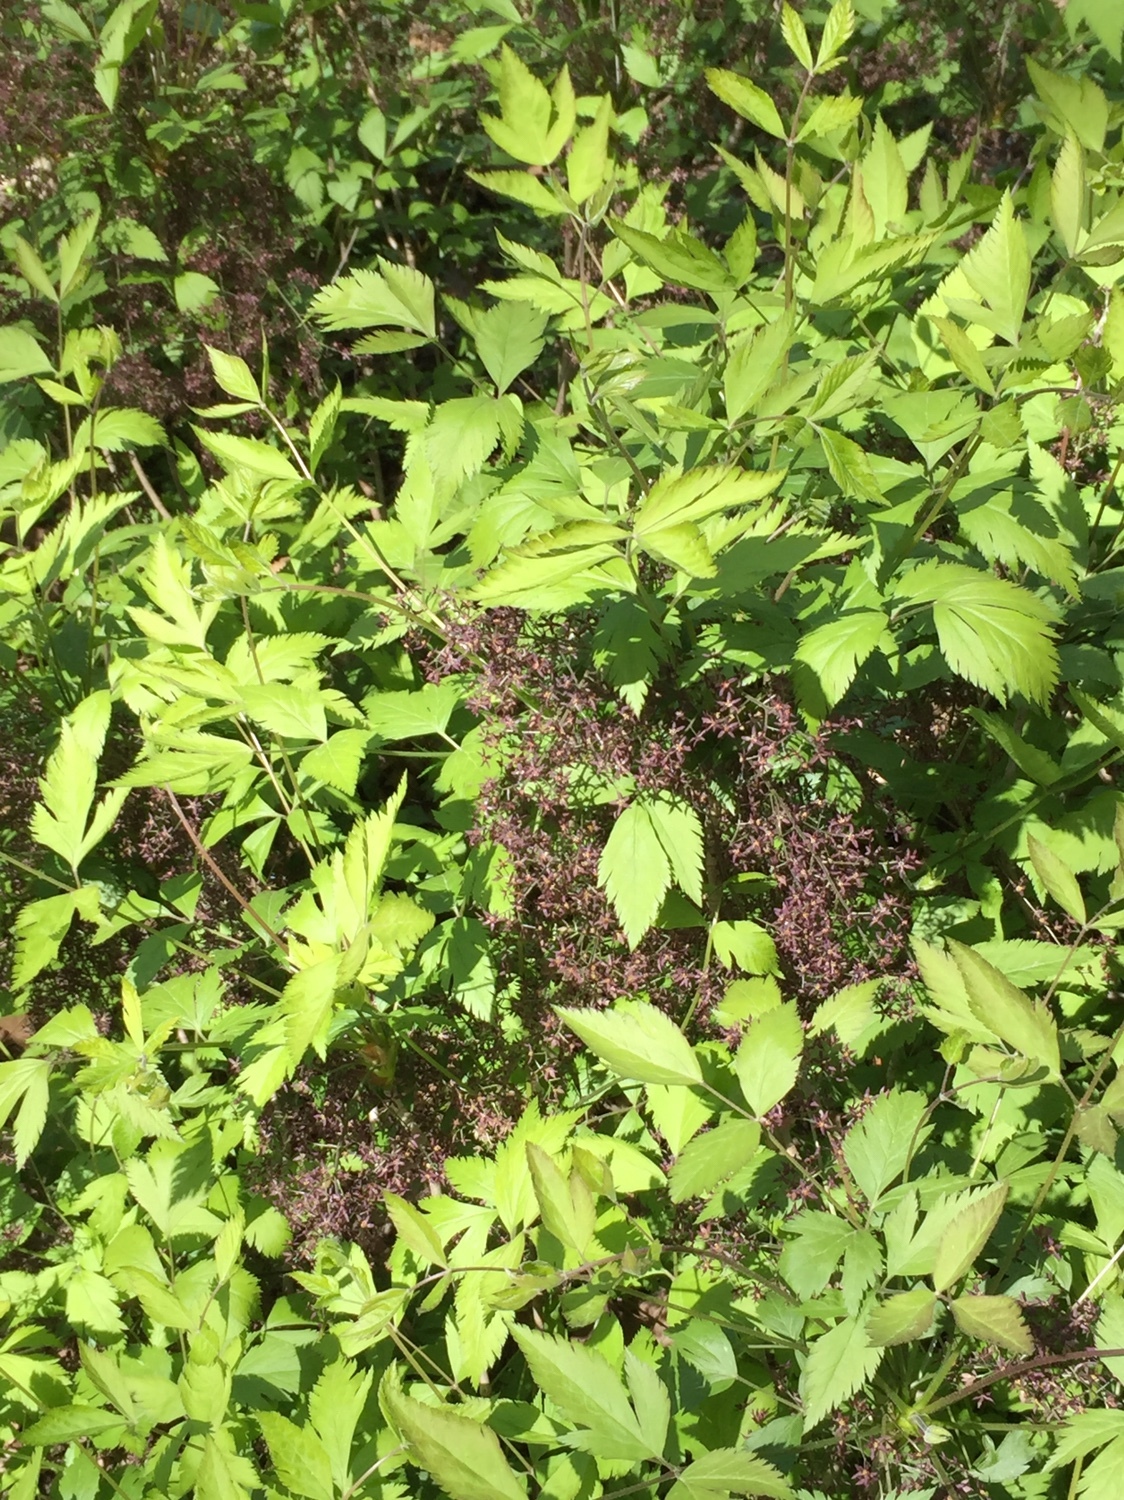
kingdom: Plantae
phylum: Tracheophyta
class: Magnoliopsida
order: Ranunculales
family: Ranunculaceae
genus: Xanthorhiza
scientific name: Xanthorhiza simplicissima
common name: Yellowroot
